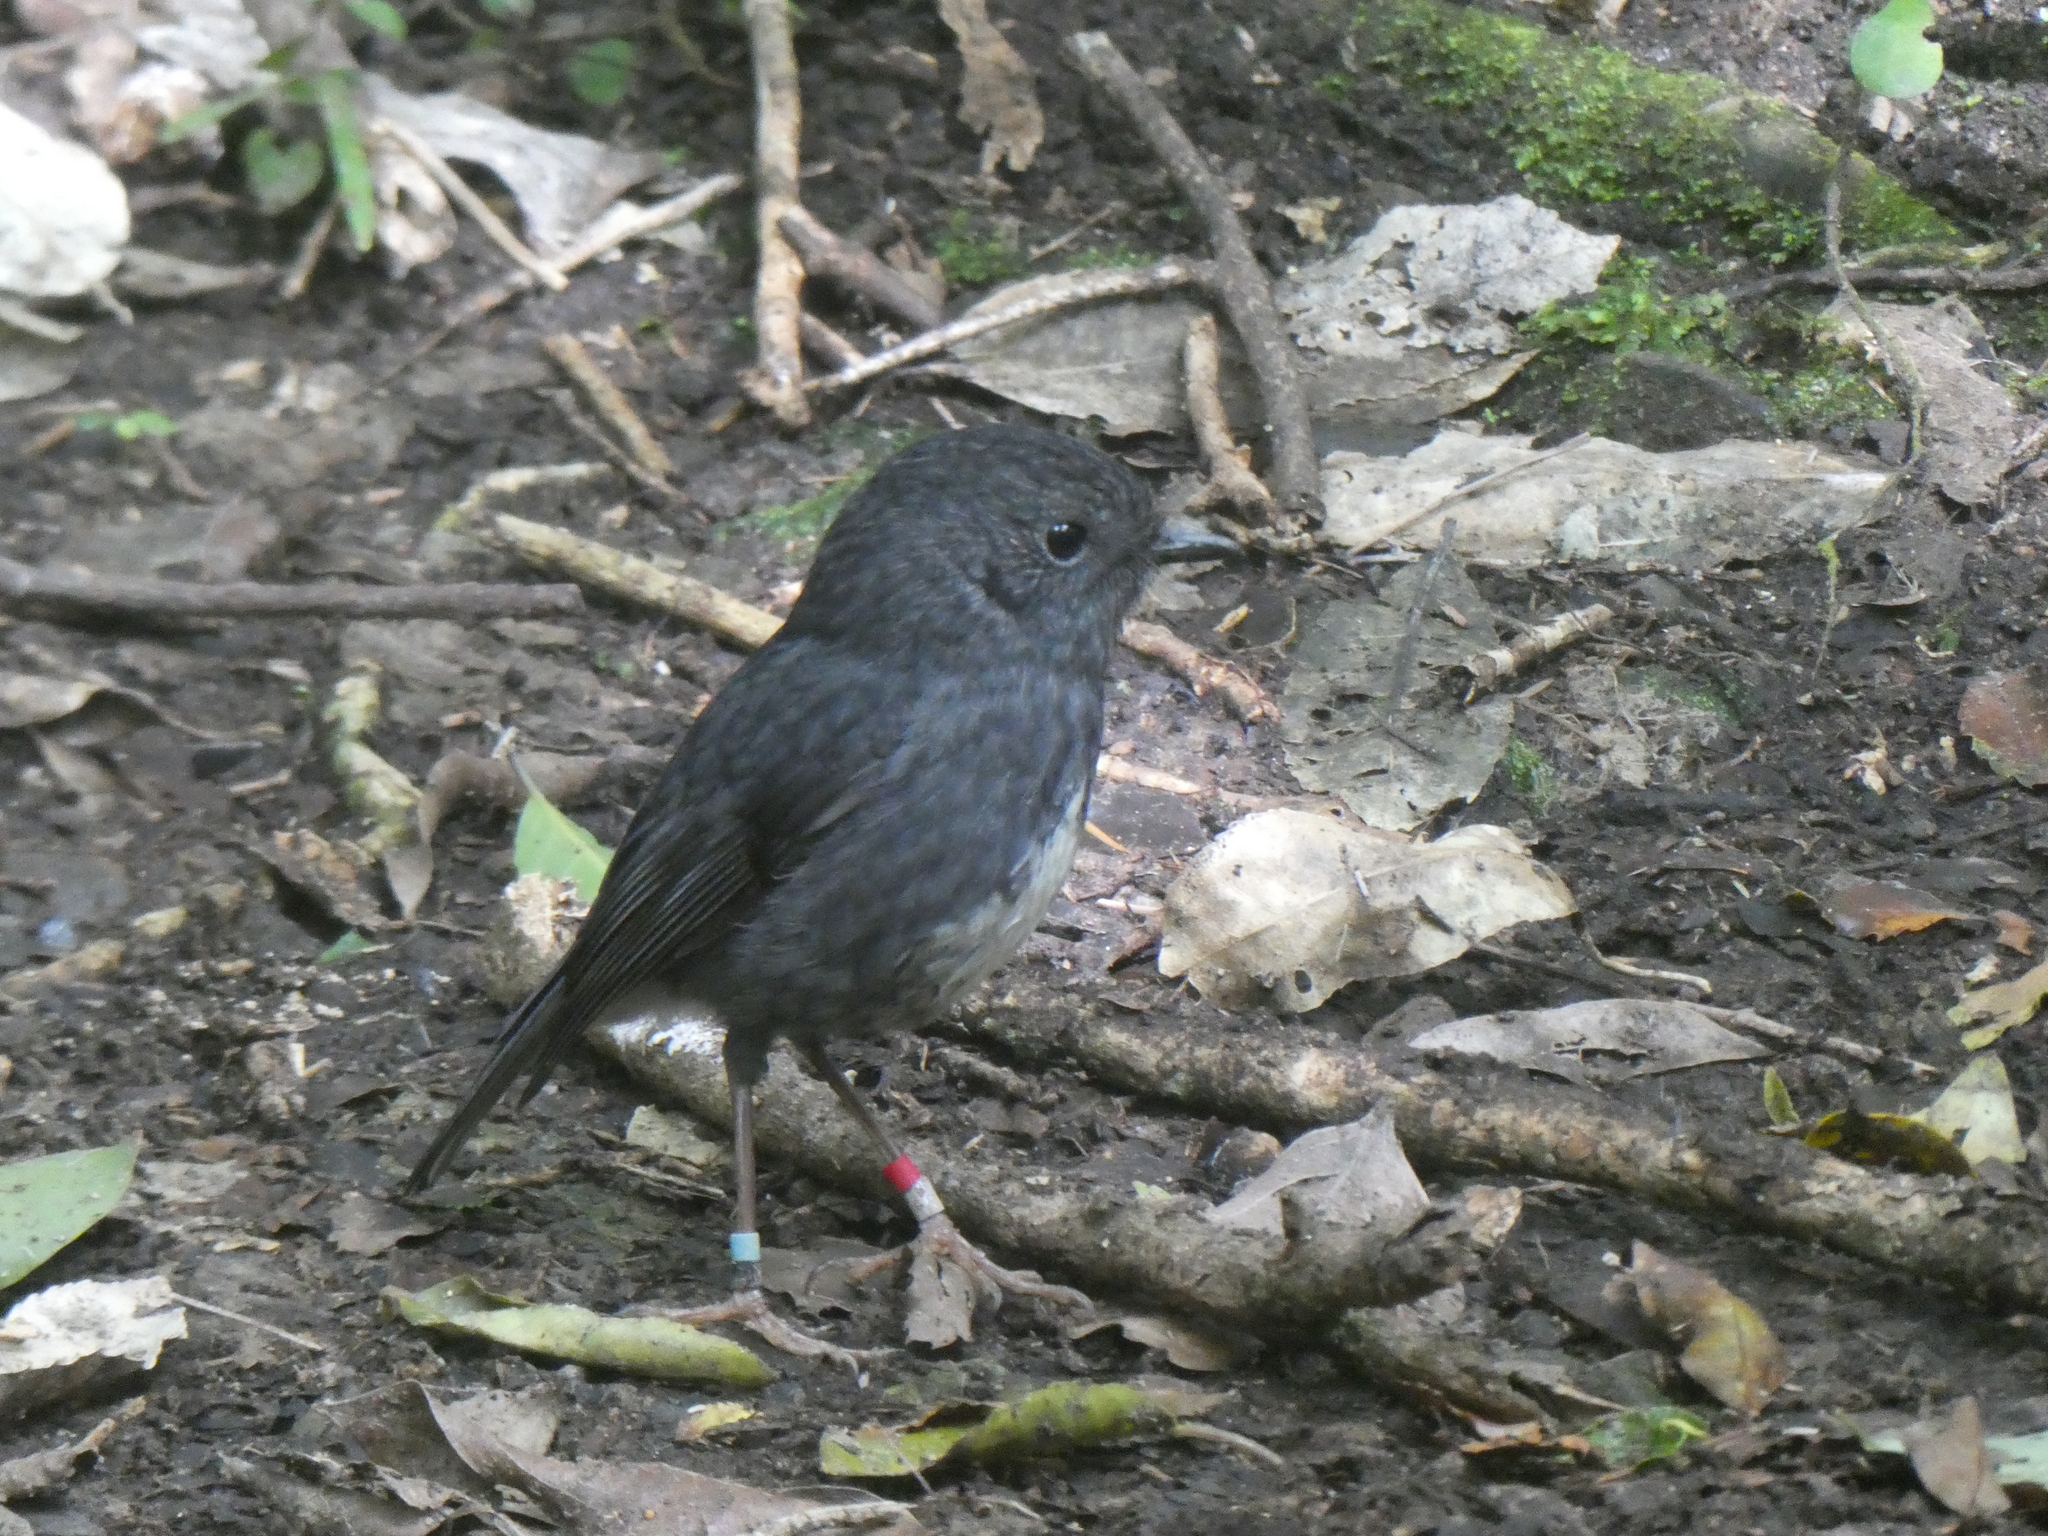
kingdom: Animalia
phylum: Chordata
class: Aves
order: Passeriformes
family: Petroicidae
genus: Petroica
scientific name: Petroica australis
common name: New zealand robin
